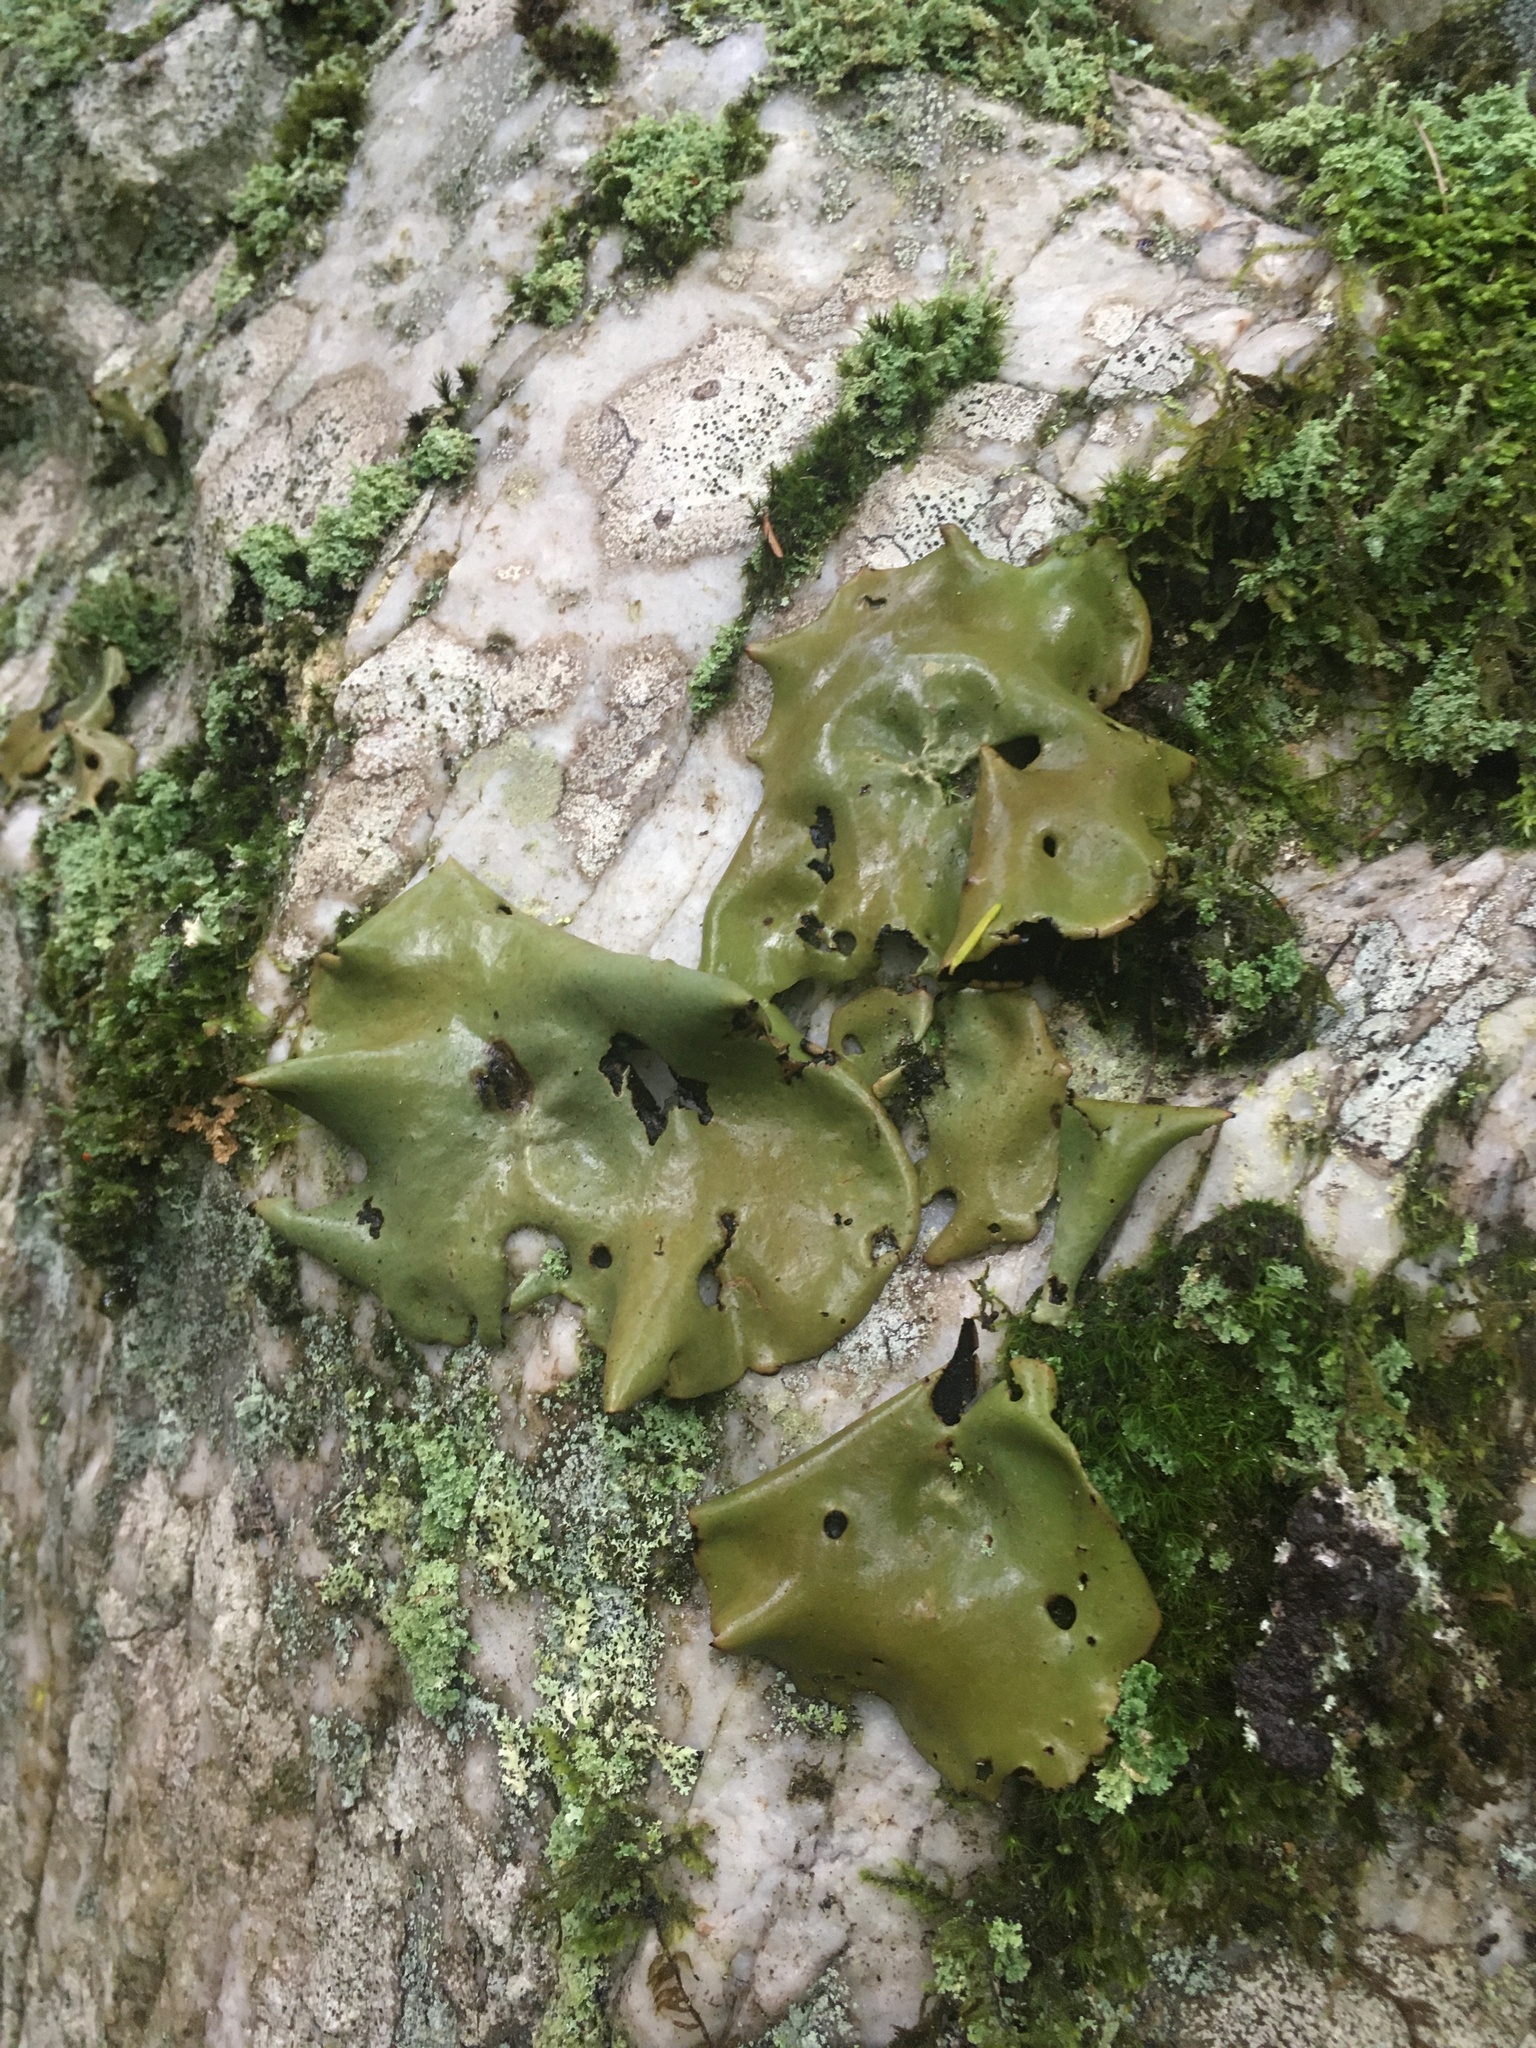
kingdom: Fungi
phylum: Ascomycota
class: Lecanoromycetes
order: Umbilicariales
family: Umbilicariaceae
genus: Umbilicaria
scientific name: Umbilicaria mammulata
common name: Smooth rock tripe
